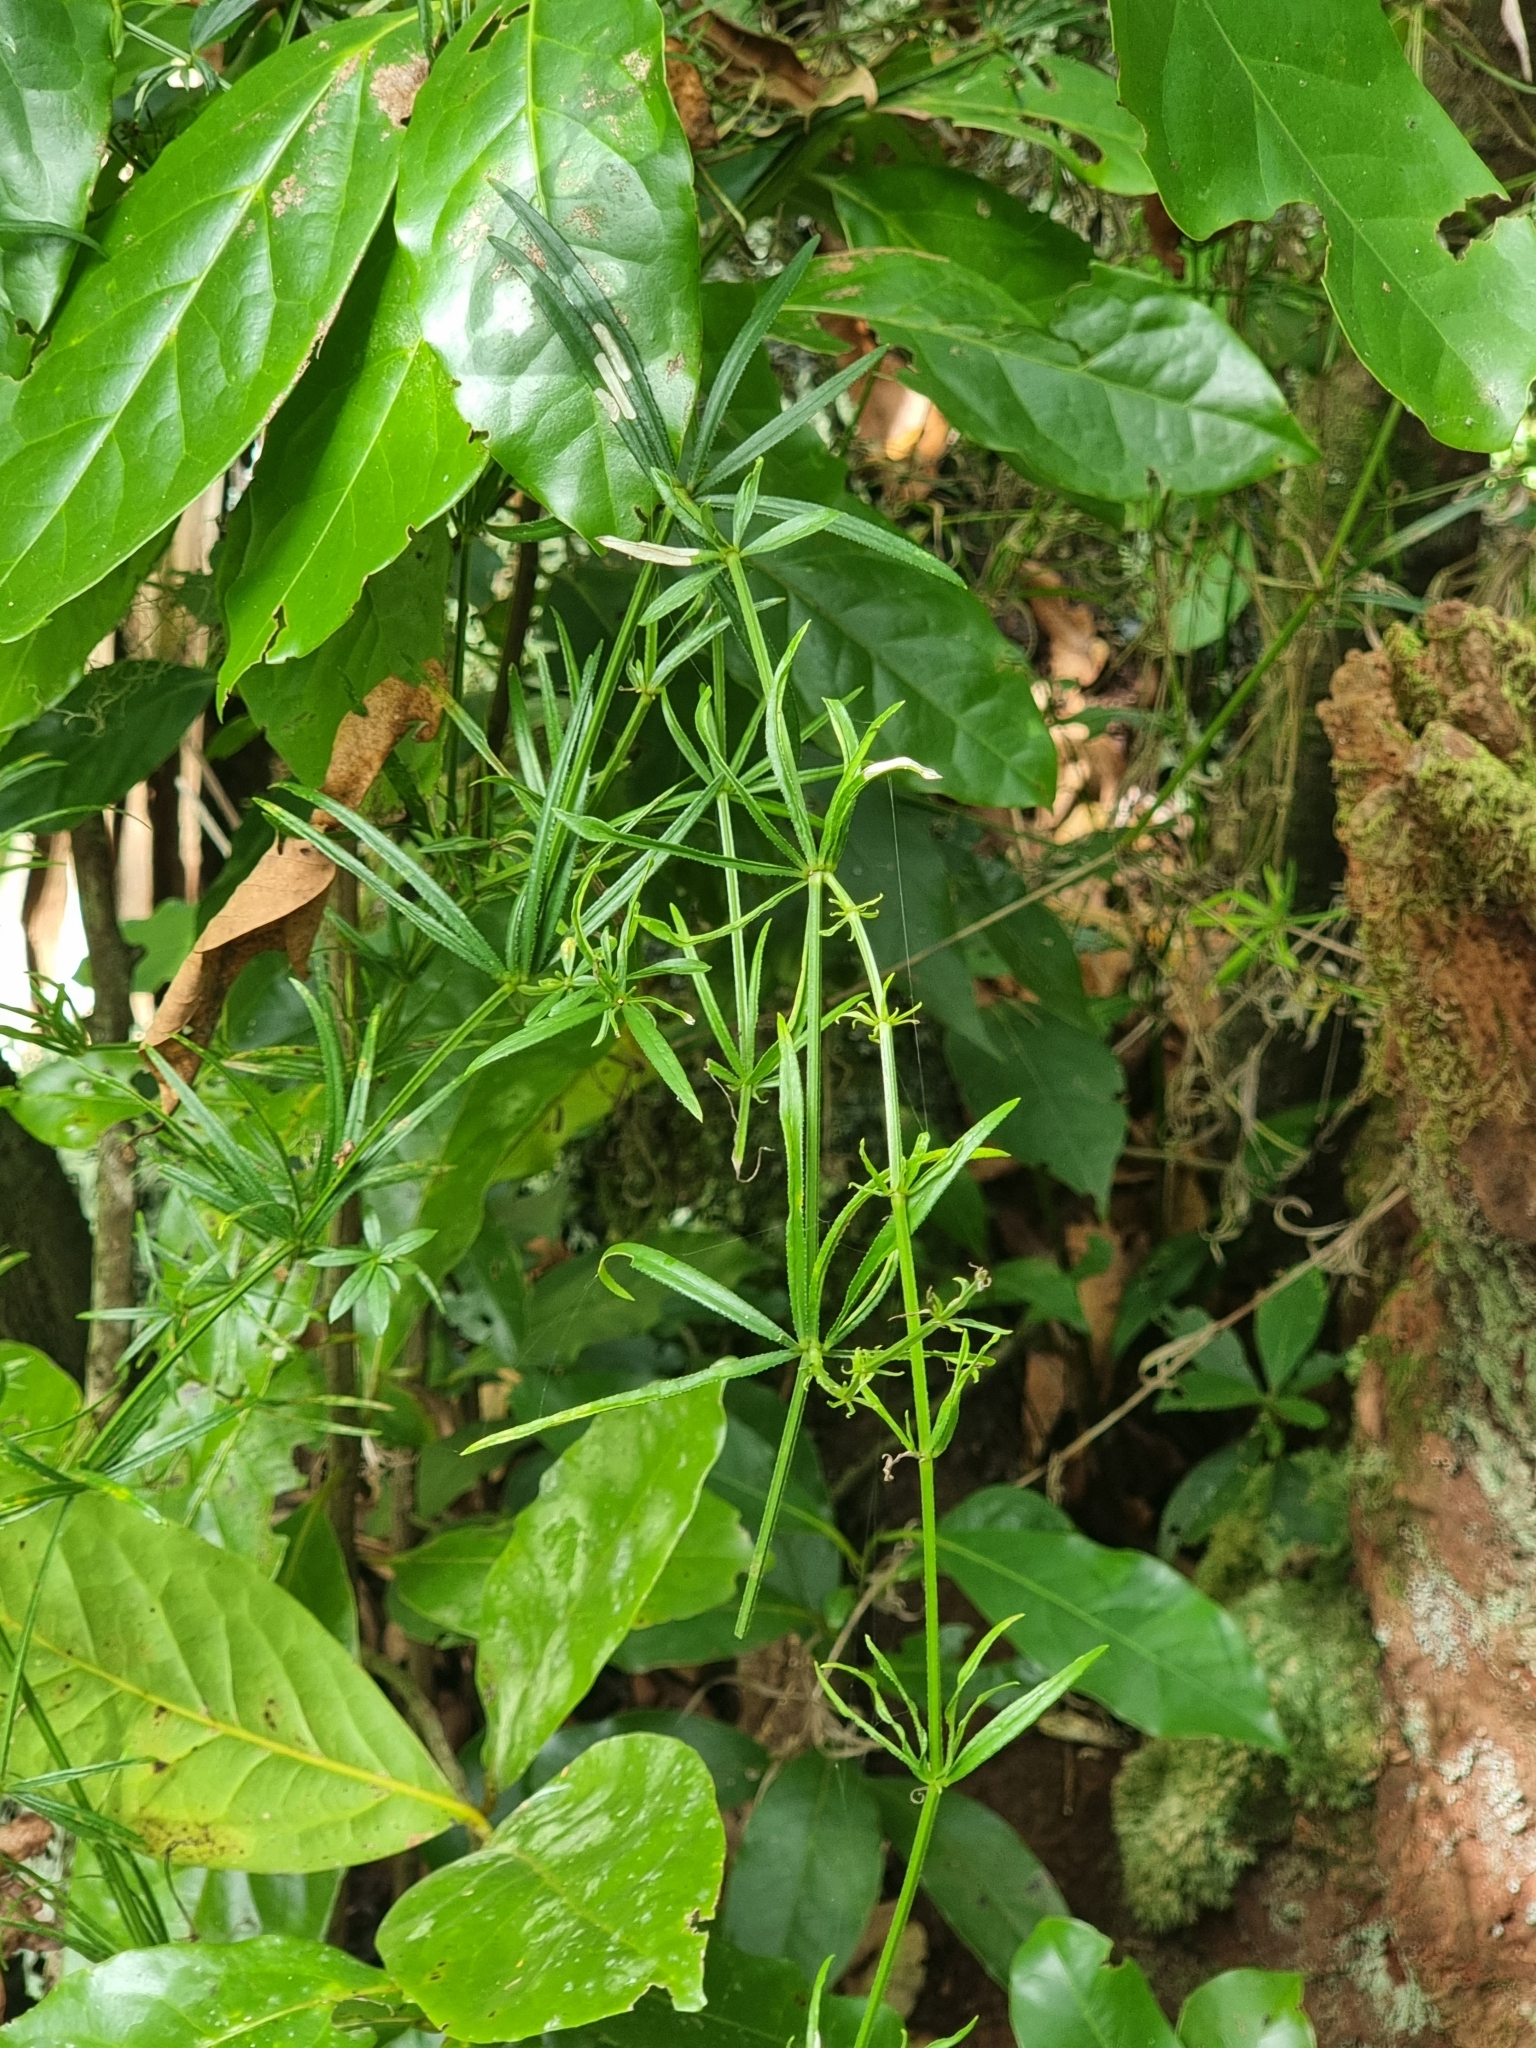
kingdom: Plantae
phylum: Tracheophyta
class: Magnoliopsida
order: Gentianales
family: Rubiaceae
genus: Rubia
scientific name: Rubia occidens
